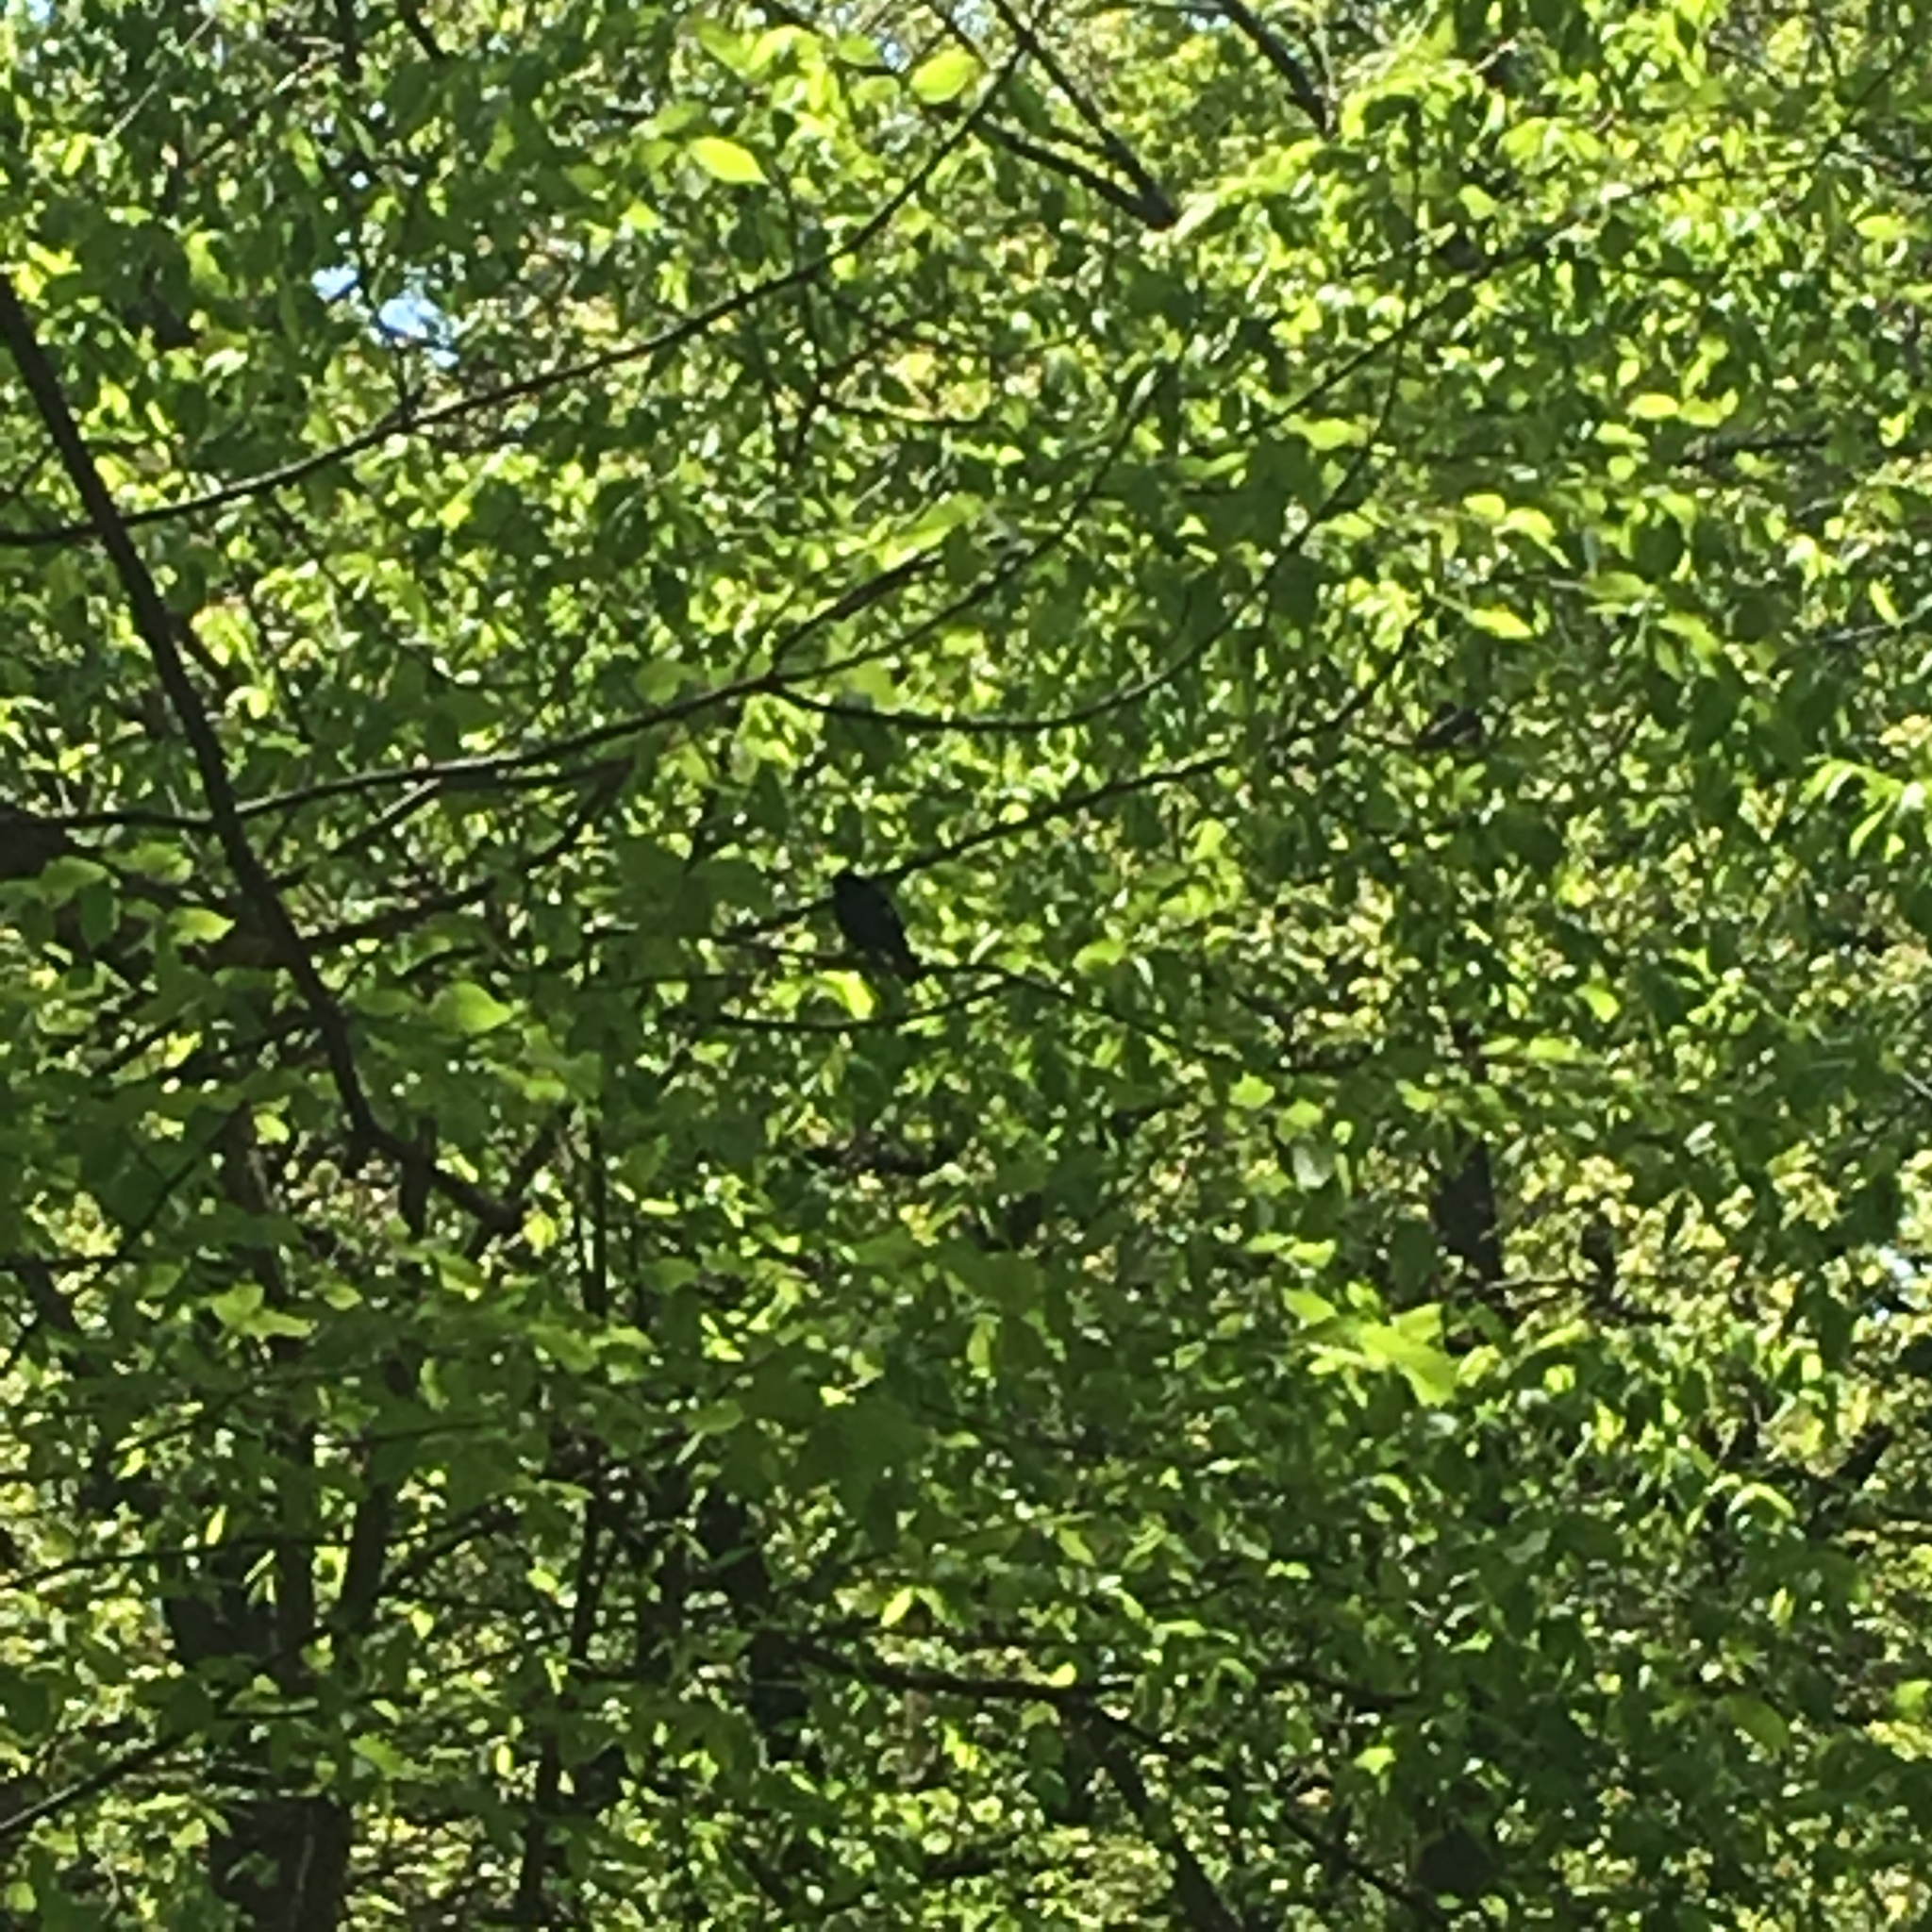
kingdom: Animalia
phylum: Chordata
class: Aves
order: Passeriformes
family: Icteridae
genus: Agelaius
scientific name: Agelaius phoeniceus
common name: Red-winged blackbird
